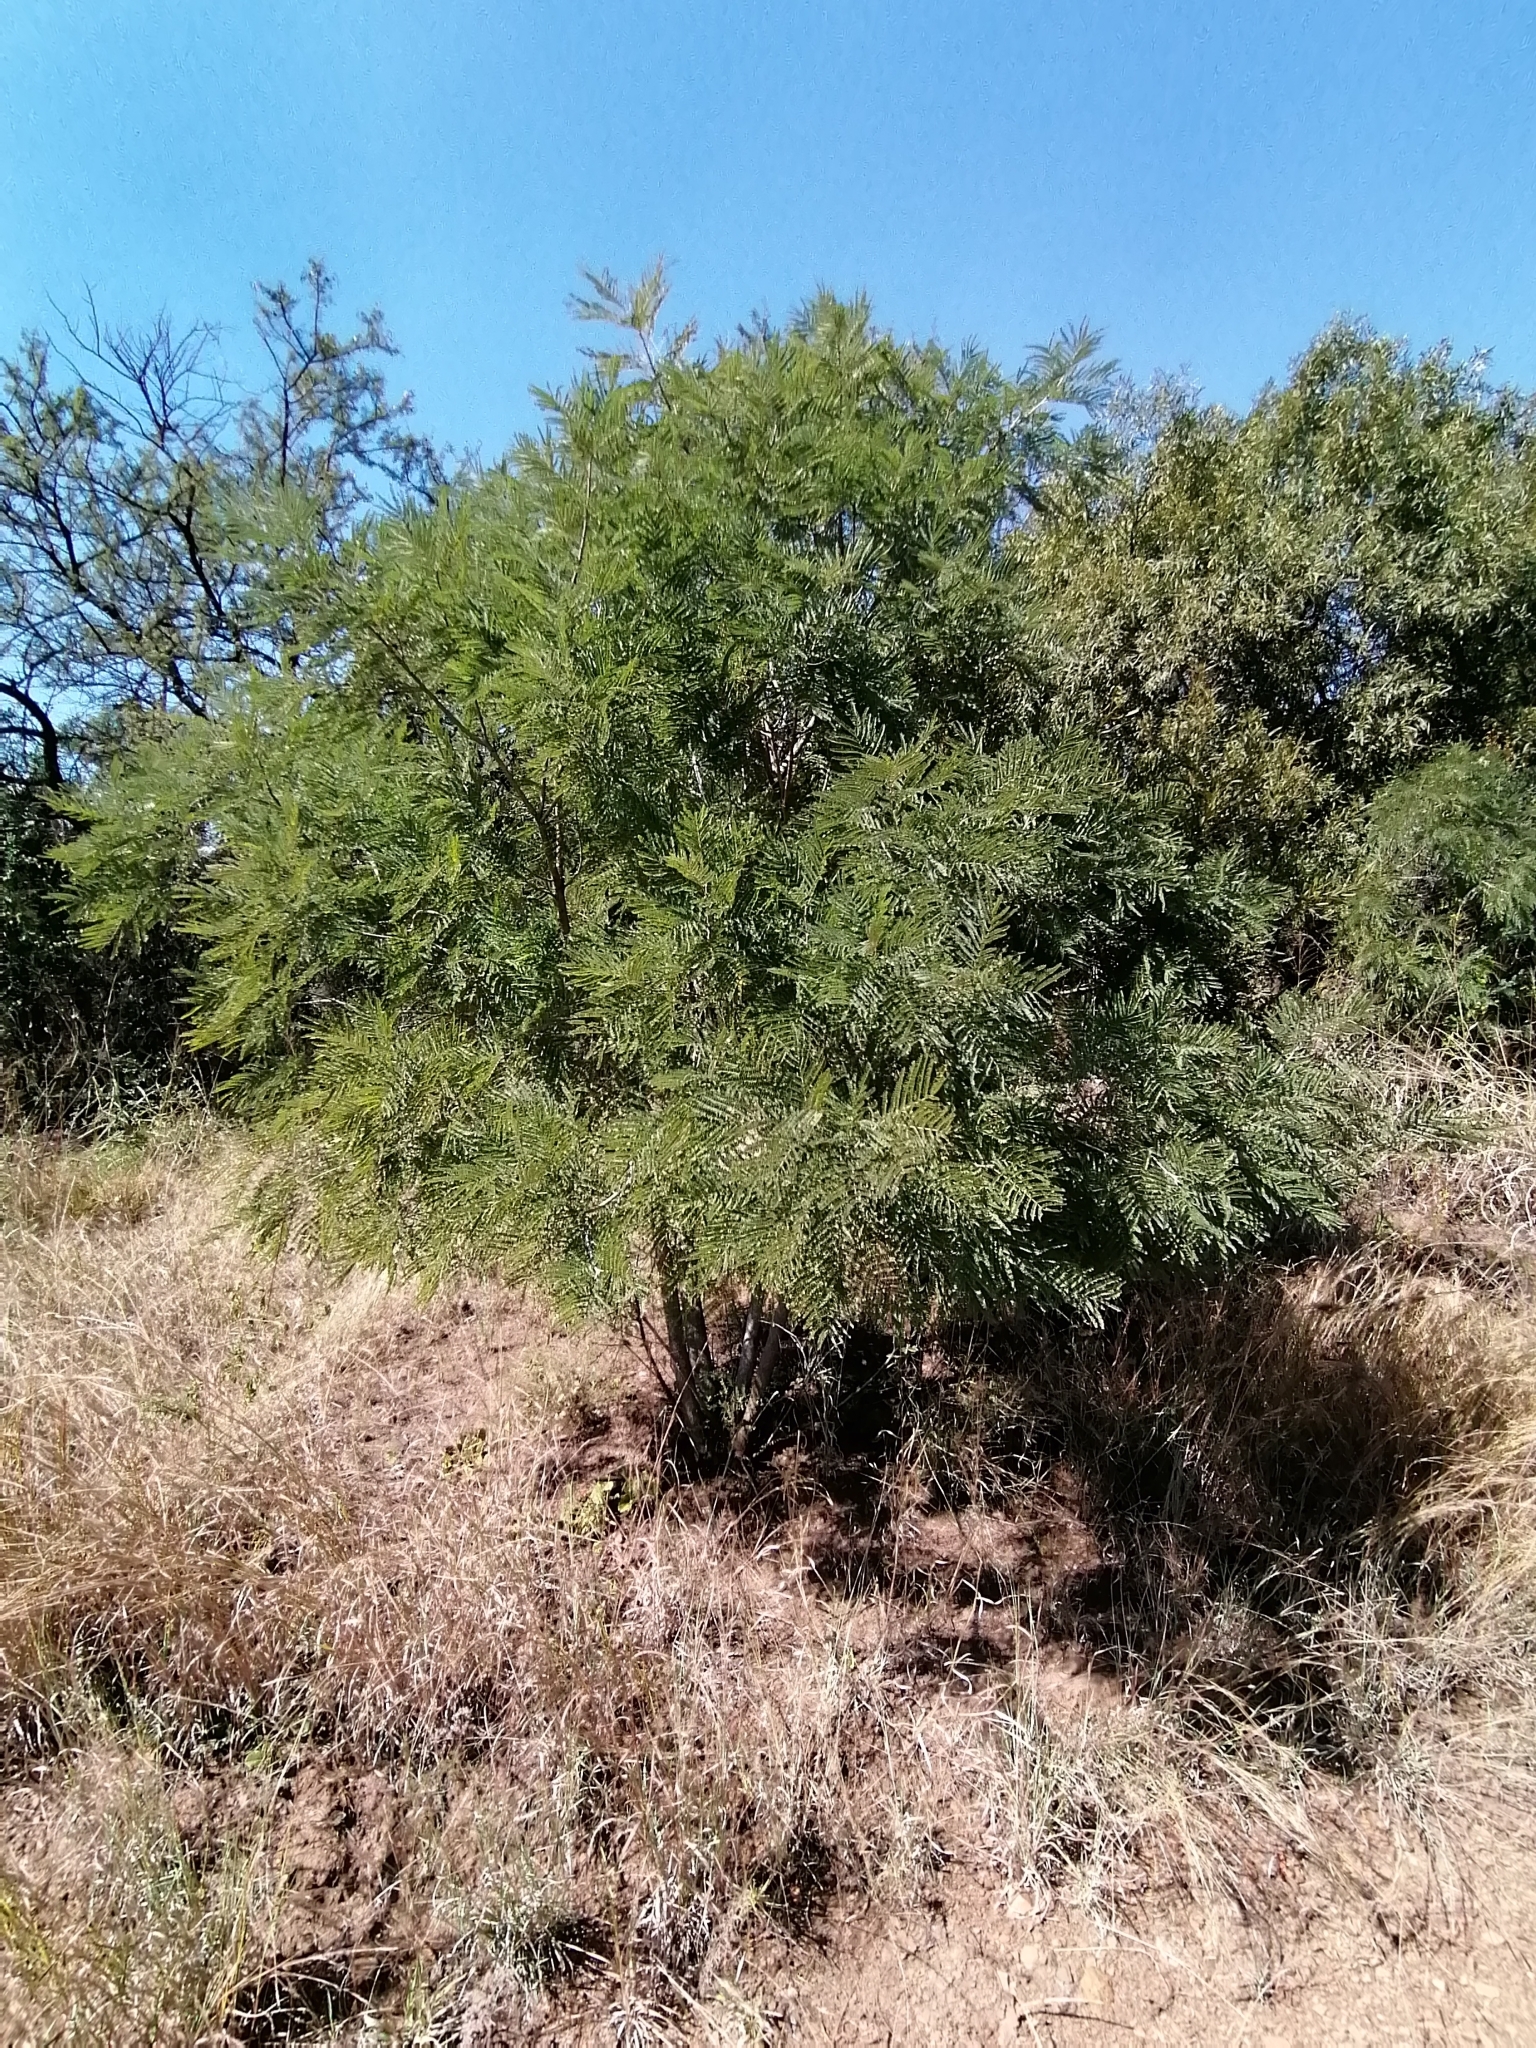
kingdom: Plantae
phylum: Tracheophyta
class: Magnoliopsida
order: Fabales
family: Fabaceae
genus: Peltophorum
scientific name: Peltophorum africanum
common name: African black wattle
